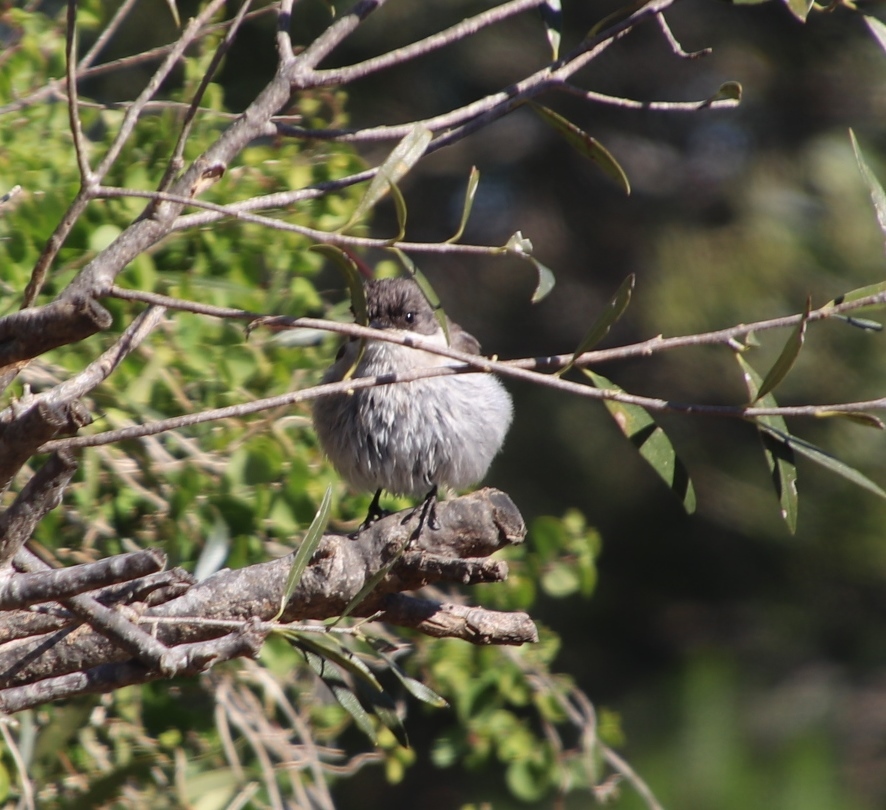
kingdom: Animalia
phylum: Chordata
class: Aves
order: Passeriformes
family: Muscicapidae
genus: Sigelus
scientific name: Sigelus silens
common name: Fiscal flycatcher
